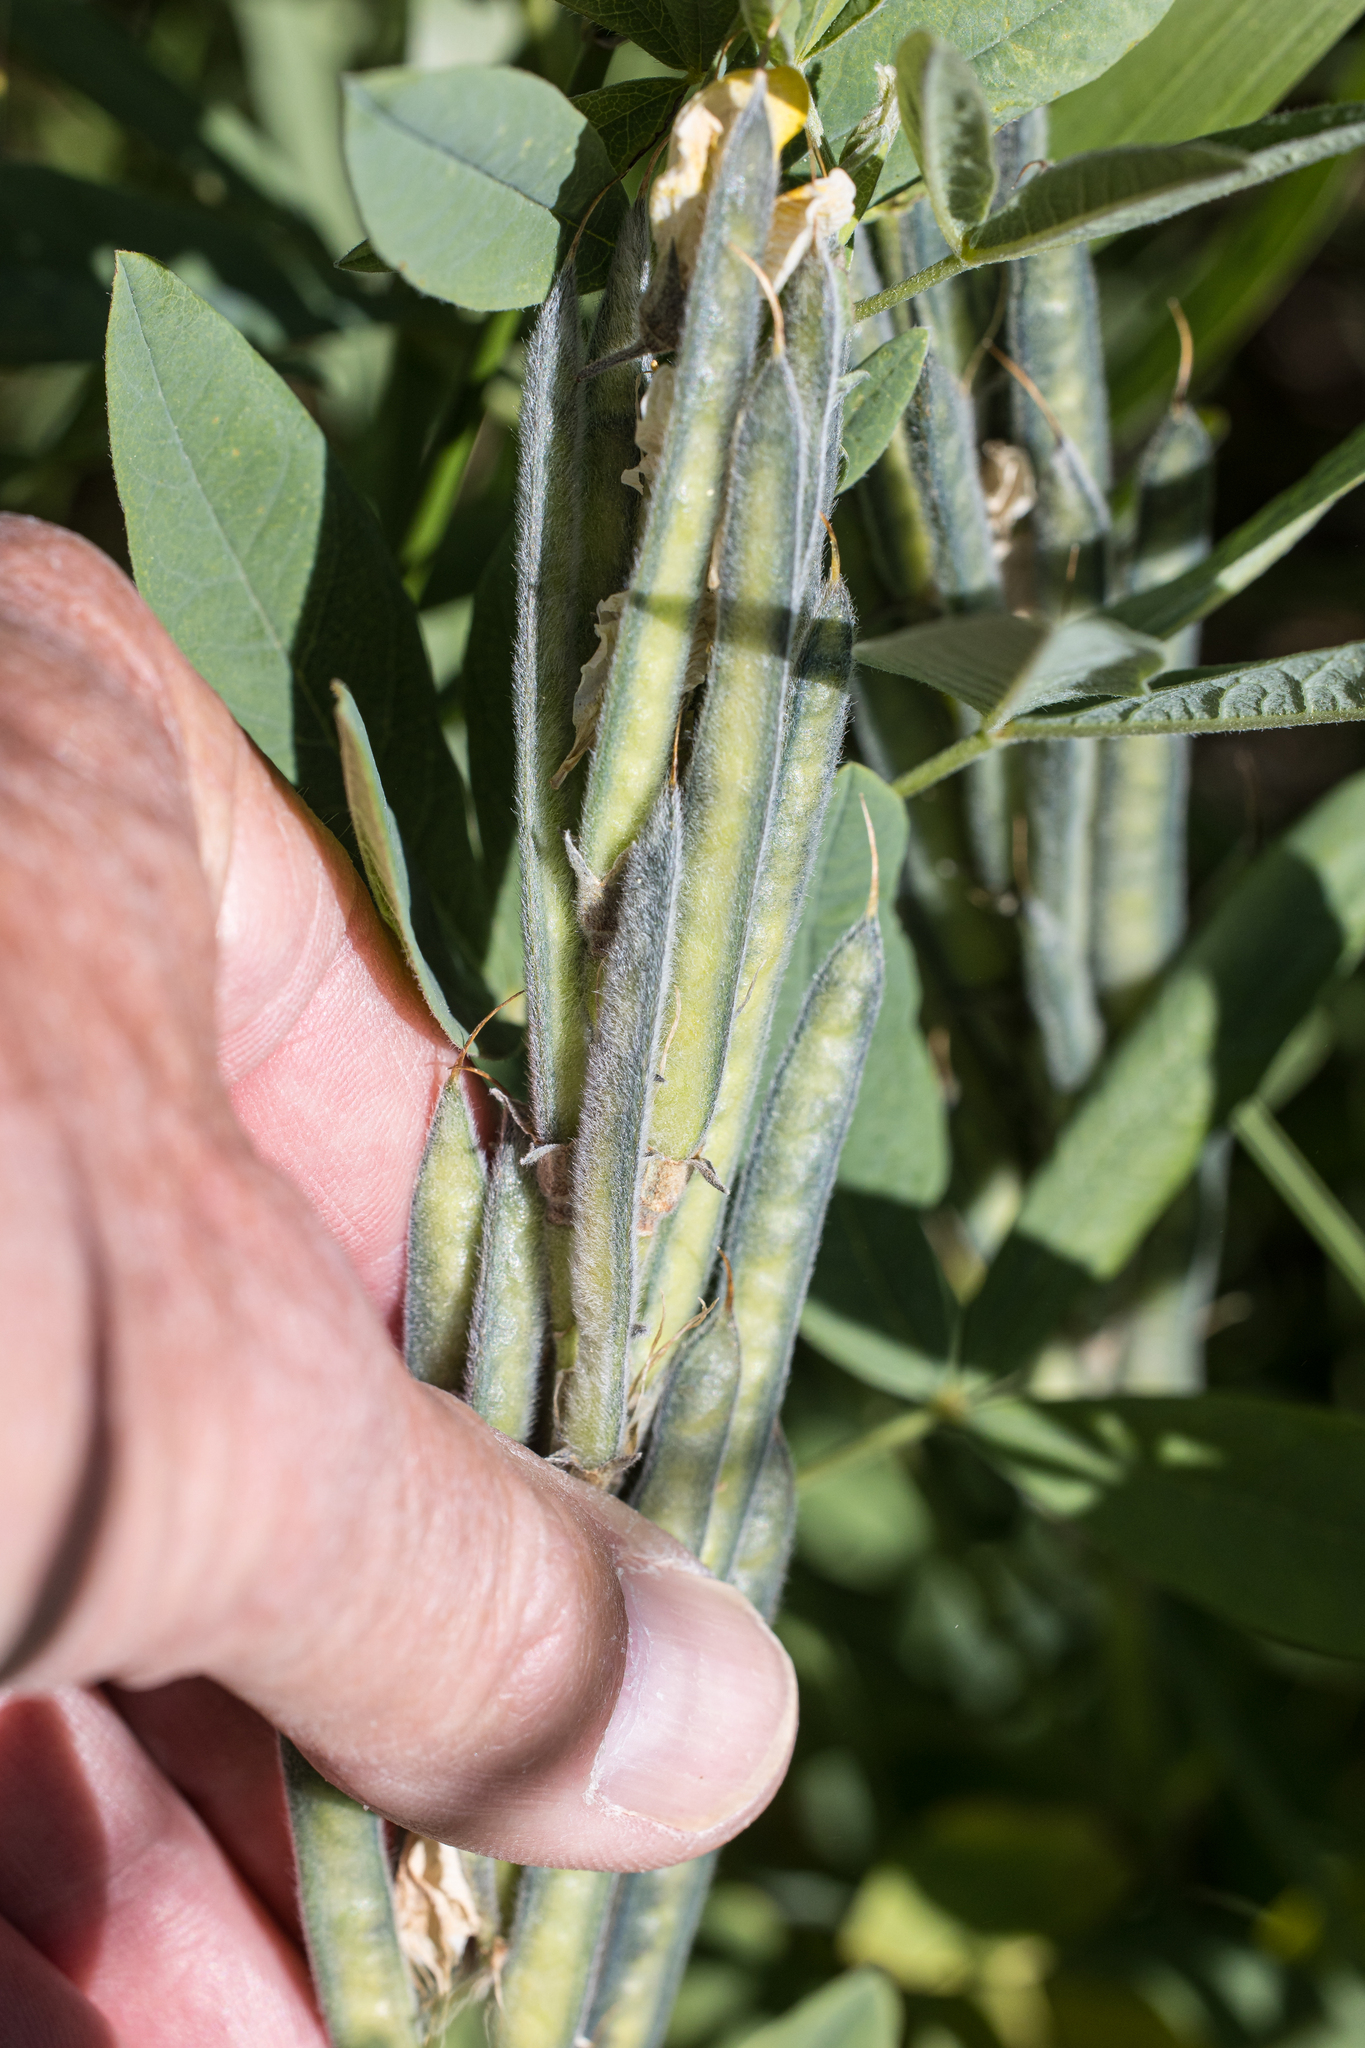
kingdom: Plantae
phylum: Tracheophyta
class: Magnoliopsida
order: Fabales
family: Fabaceae
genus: Thermopsis
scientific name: Thermopsis montana
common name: False lupin
